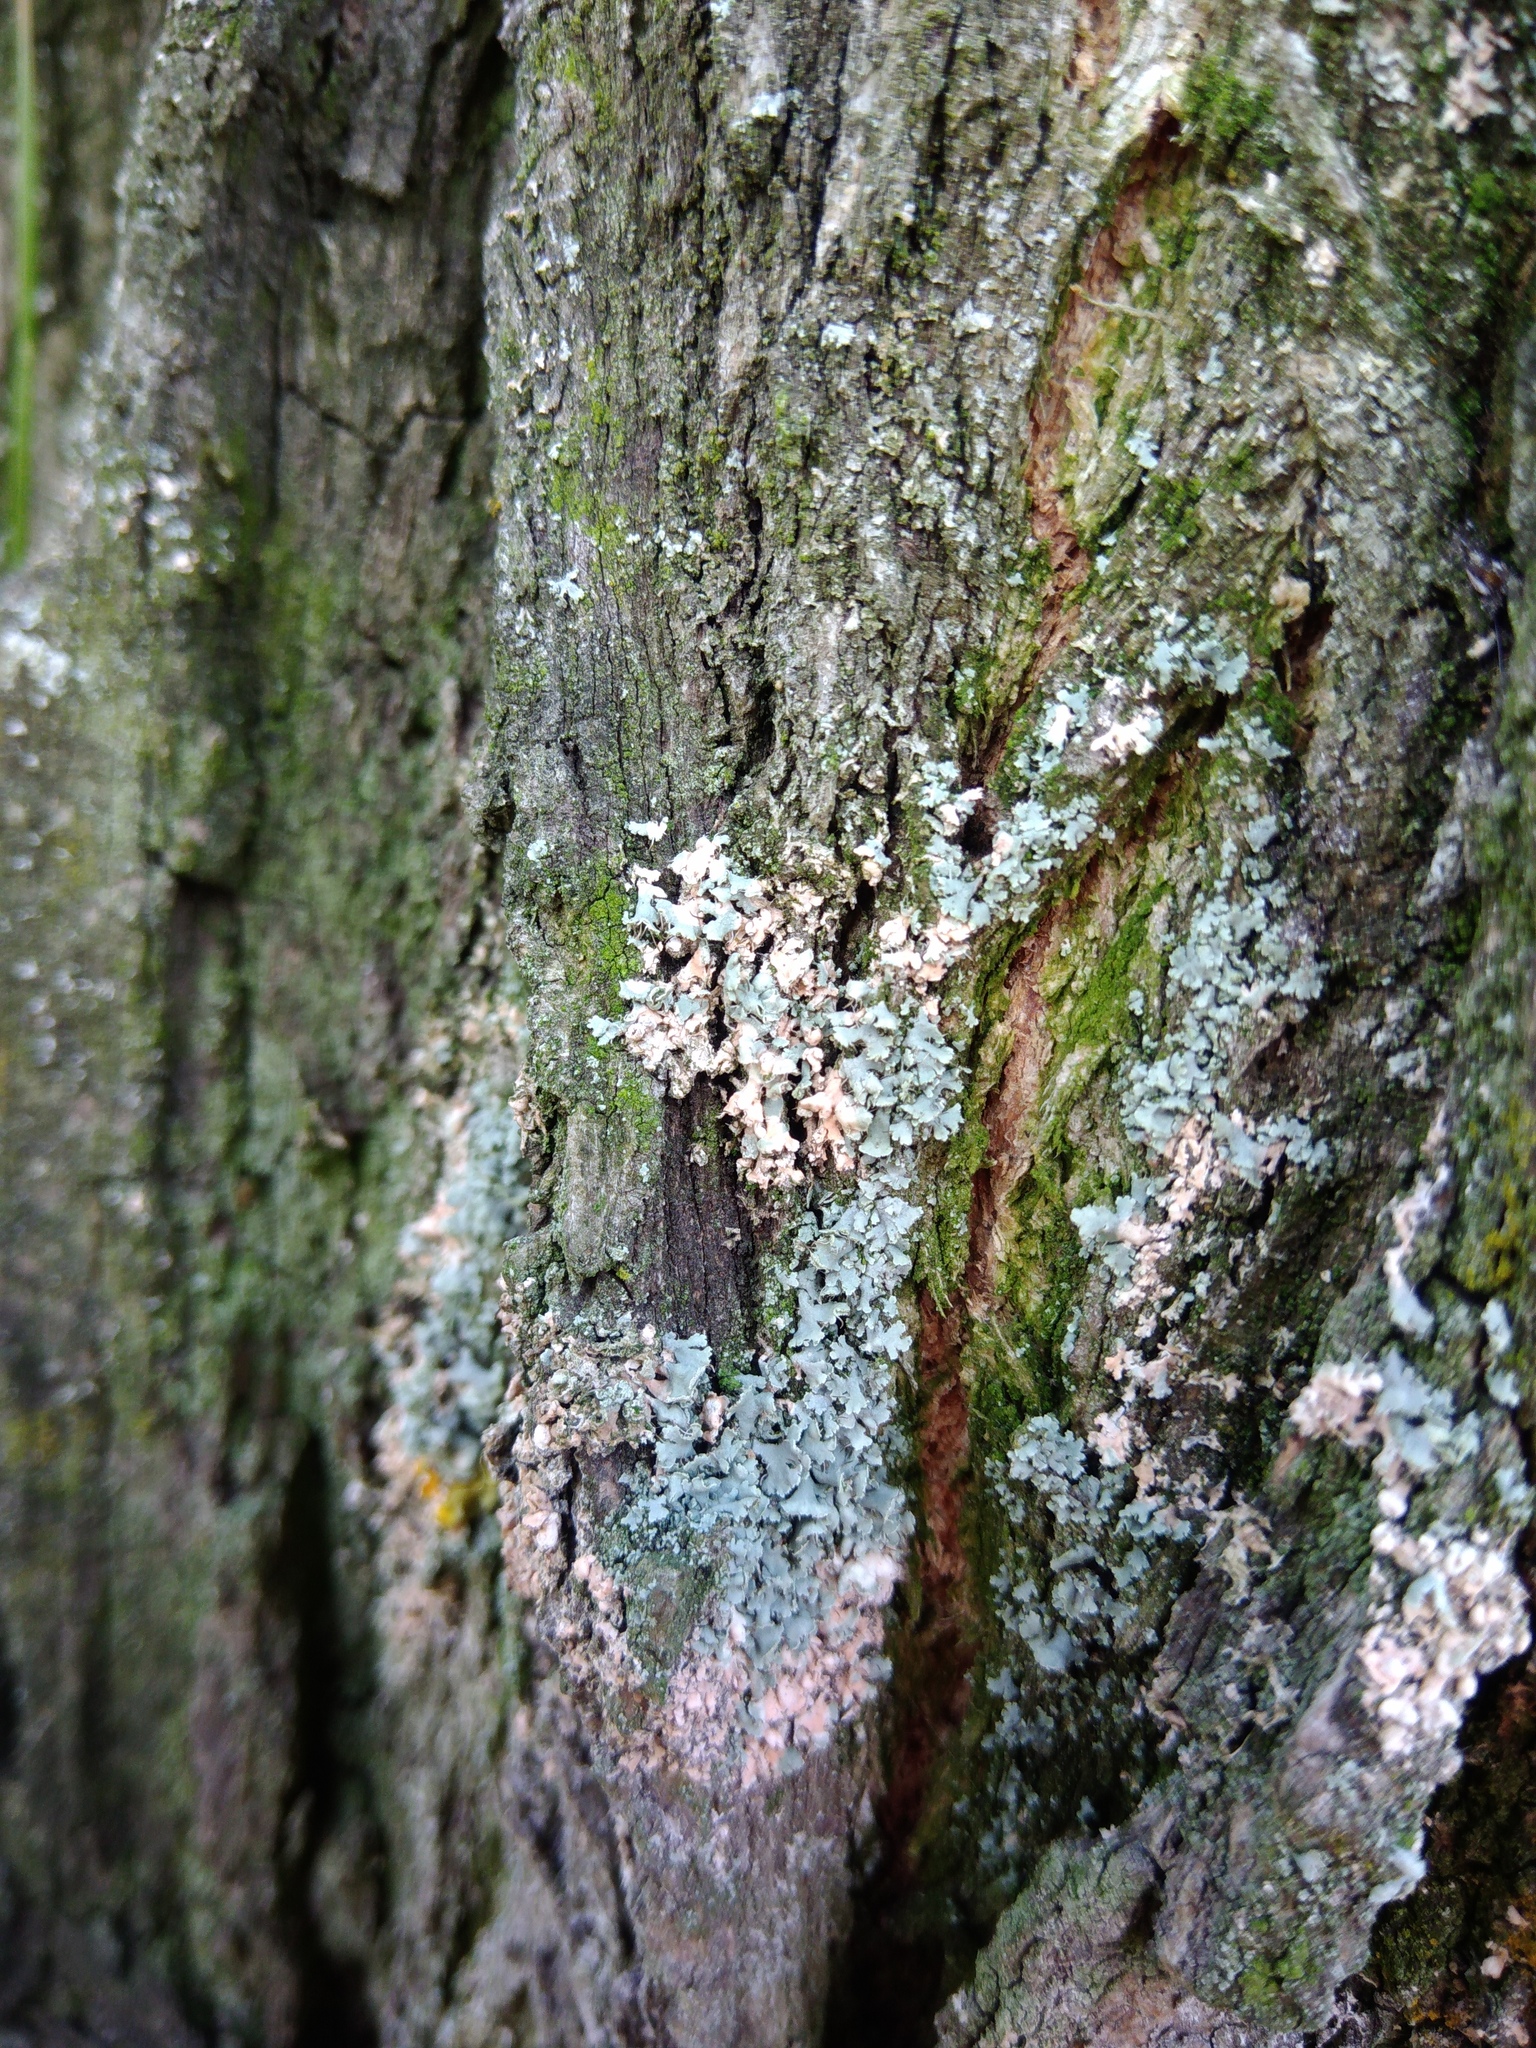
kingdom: Fungi
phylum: Basidiomycota
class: Agaricomycetes
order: Atheliales
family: Atheliaceae
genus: Athelia
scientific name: Athelia arachnoidea
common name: Candelabra duster
